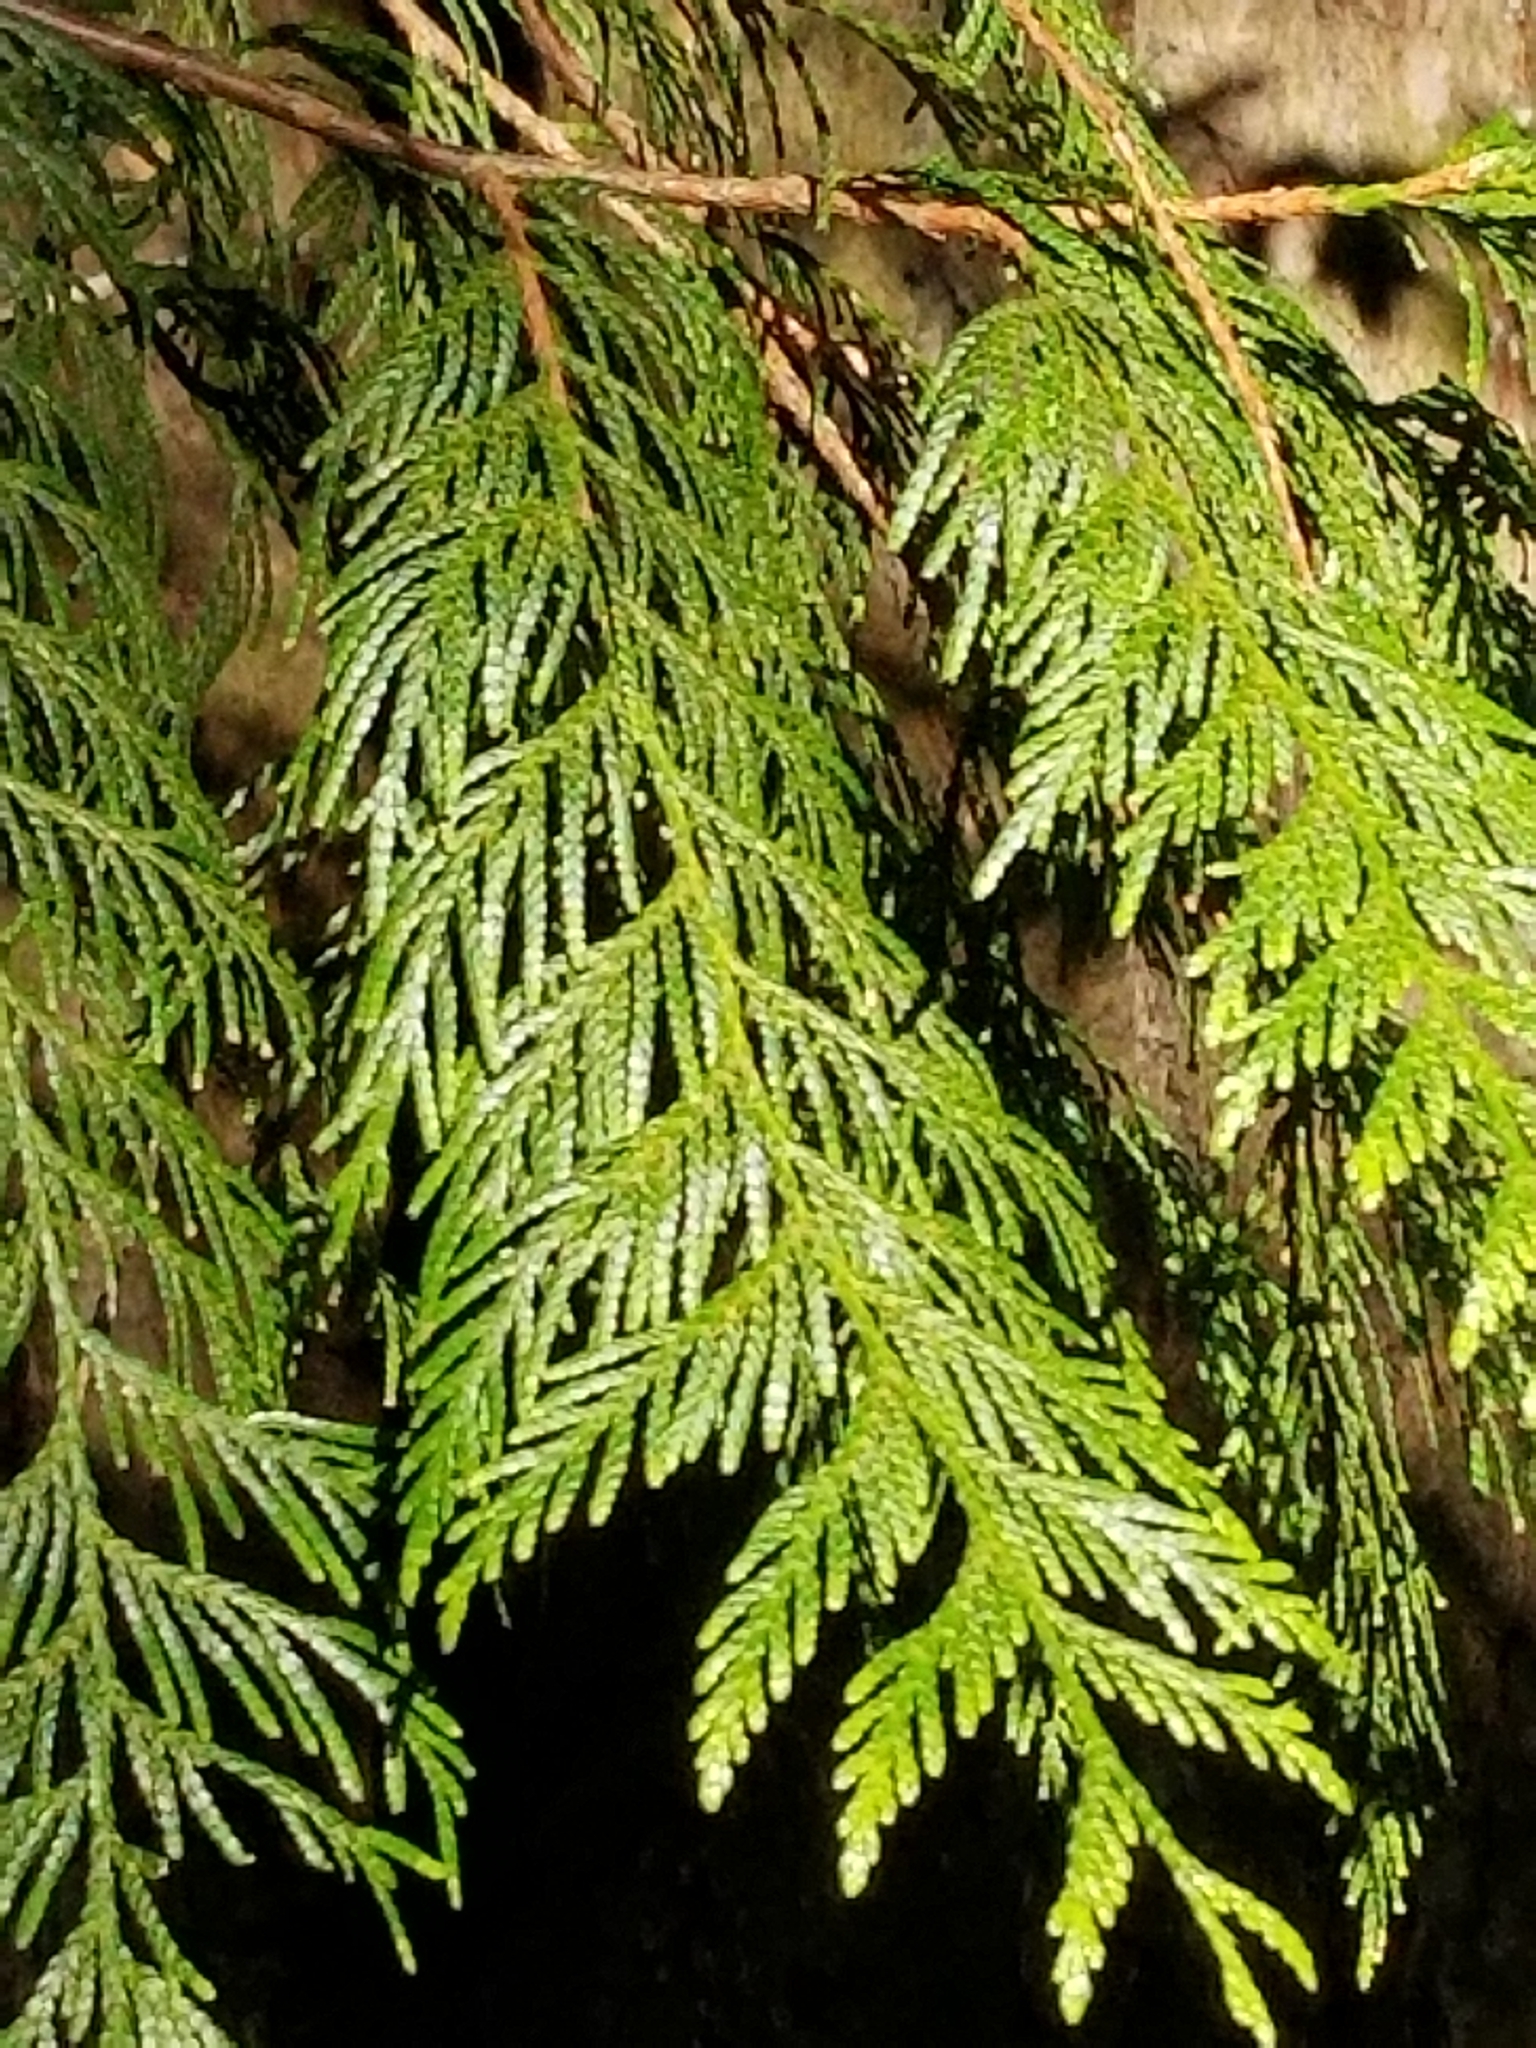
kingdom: Plantae
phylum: Tracheophyta
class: Pinopsida
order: Pinales
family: Cupressaceae
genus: Thuja
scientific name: Thuja plicata
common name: Western red-cedar
